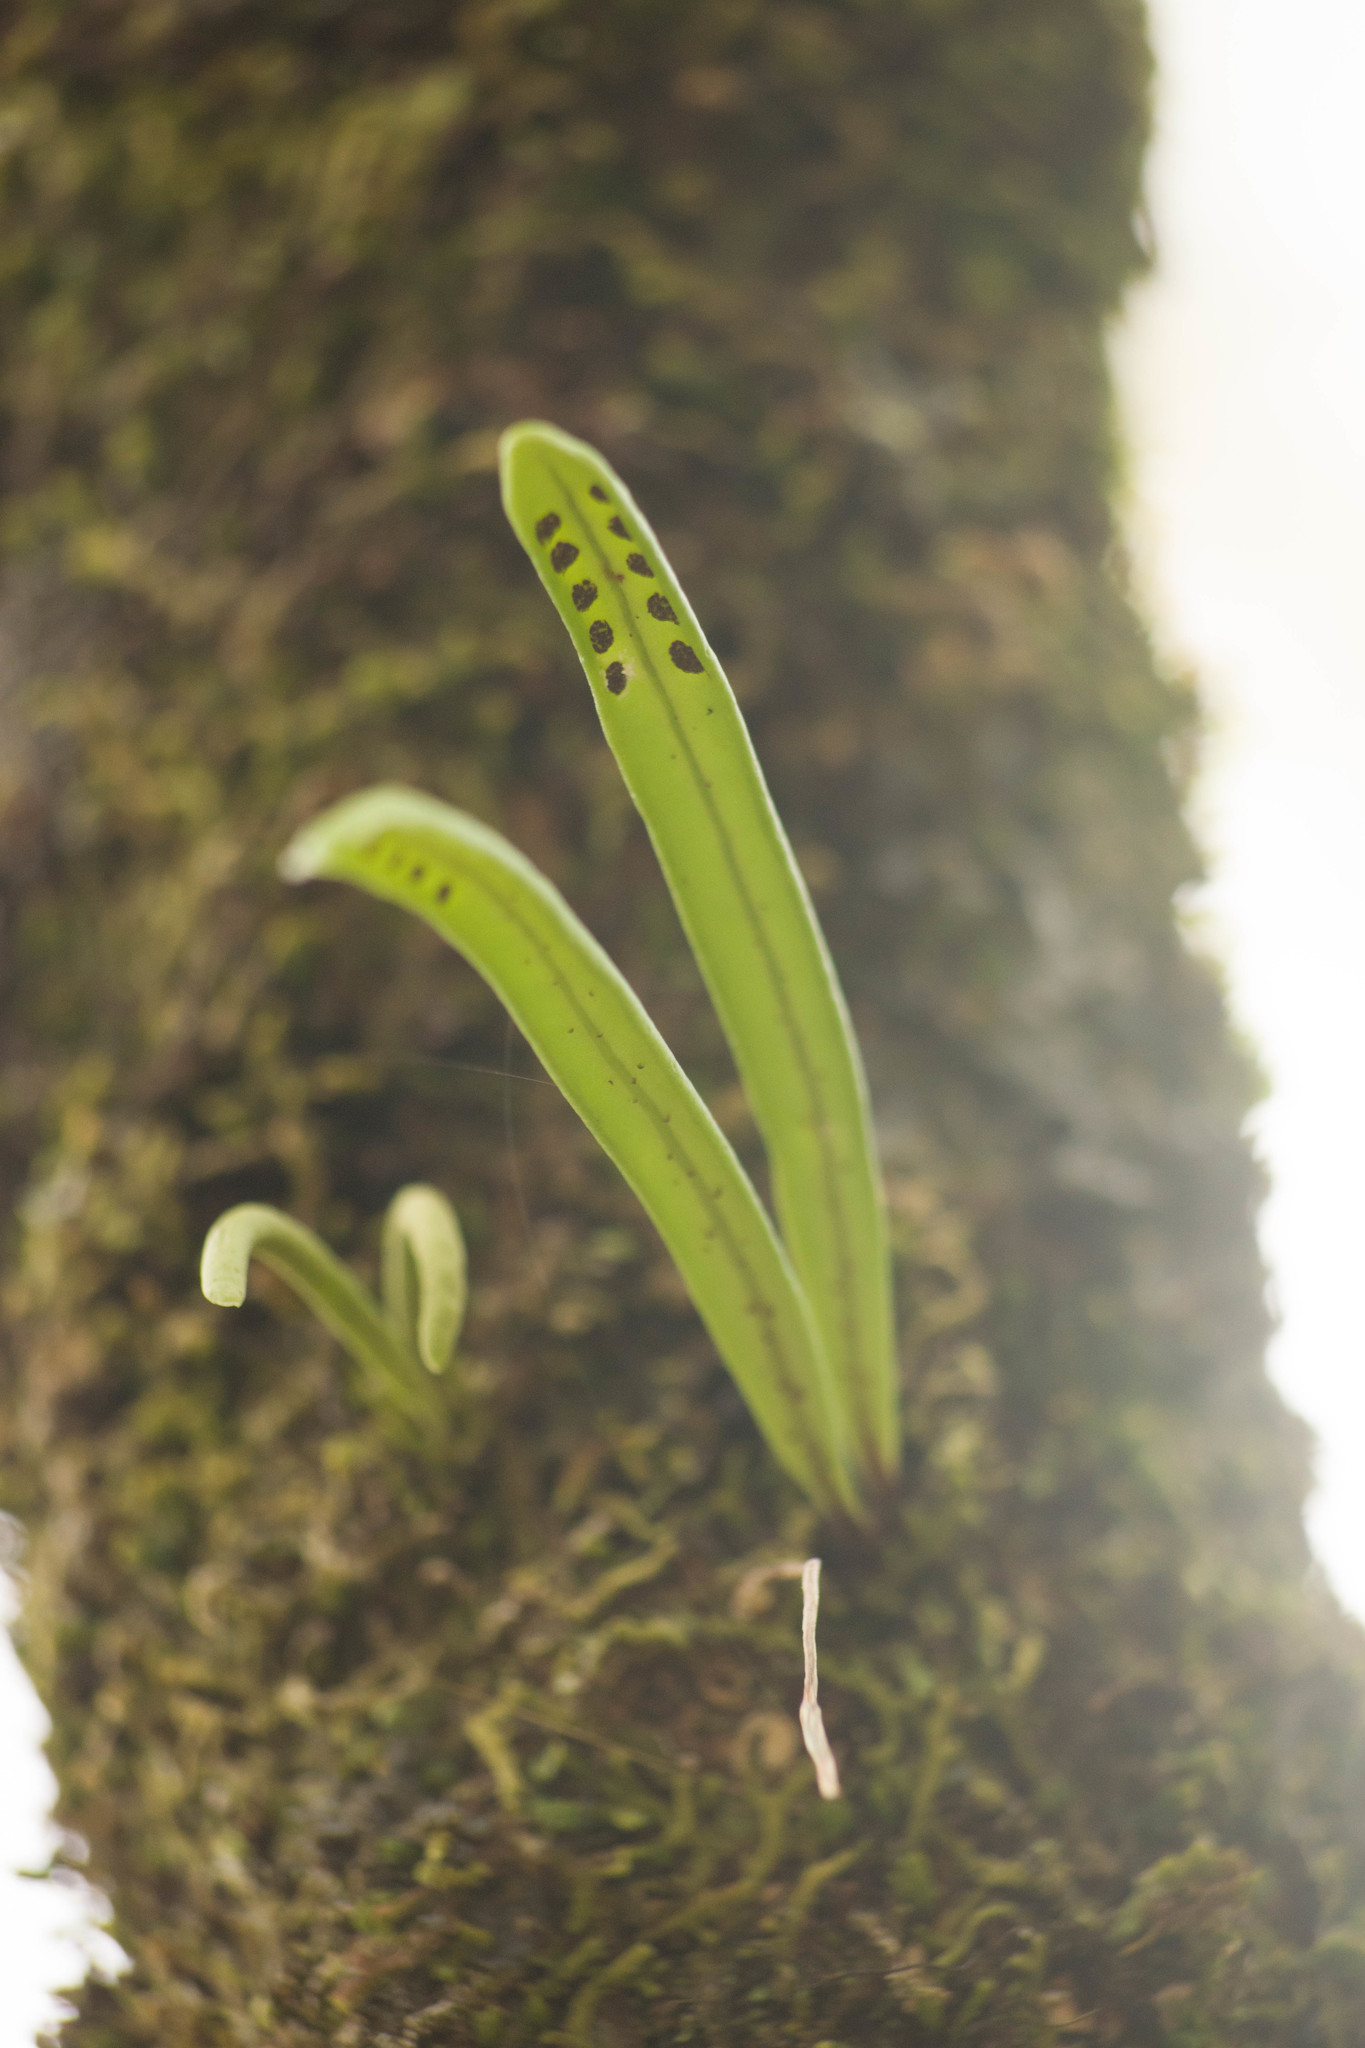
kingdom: Plantae
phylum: Tracheophyta
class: Polypodiopsida
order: Polypodiales
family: Polypodiaceae
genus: Lepisorus
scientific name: Lepisorus thunbergianus
